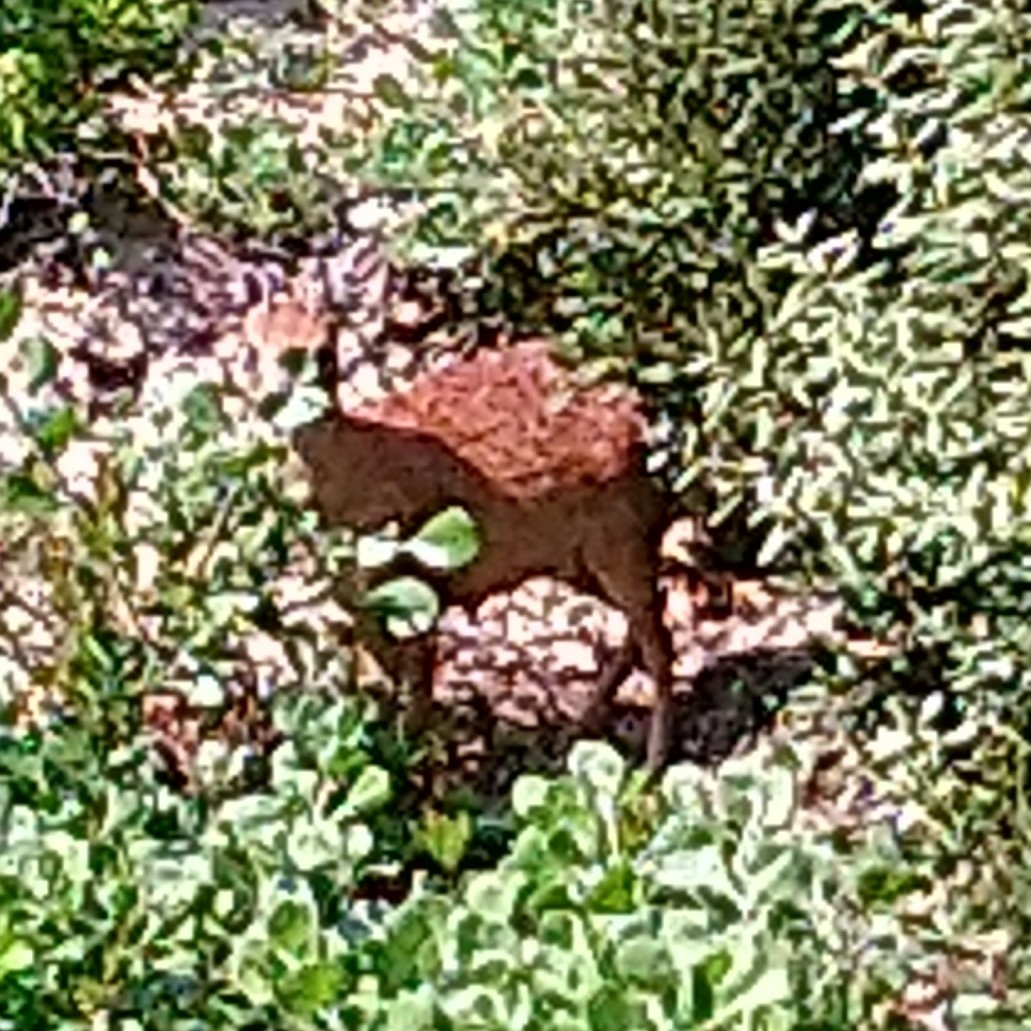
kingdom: Animalia
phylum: Chordata
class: Mammalia
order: Artiodactyla
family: Bovidae
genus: Raphicerus
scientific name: Raphicerus melanotis
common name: Cape grysbok
